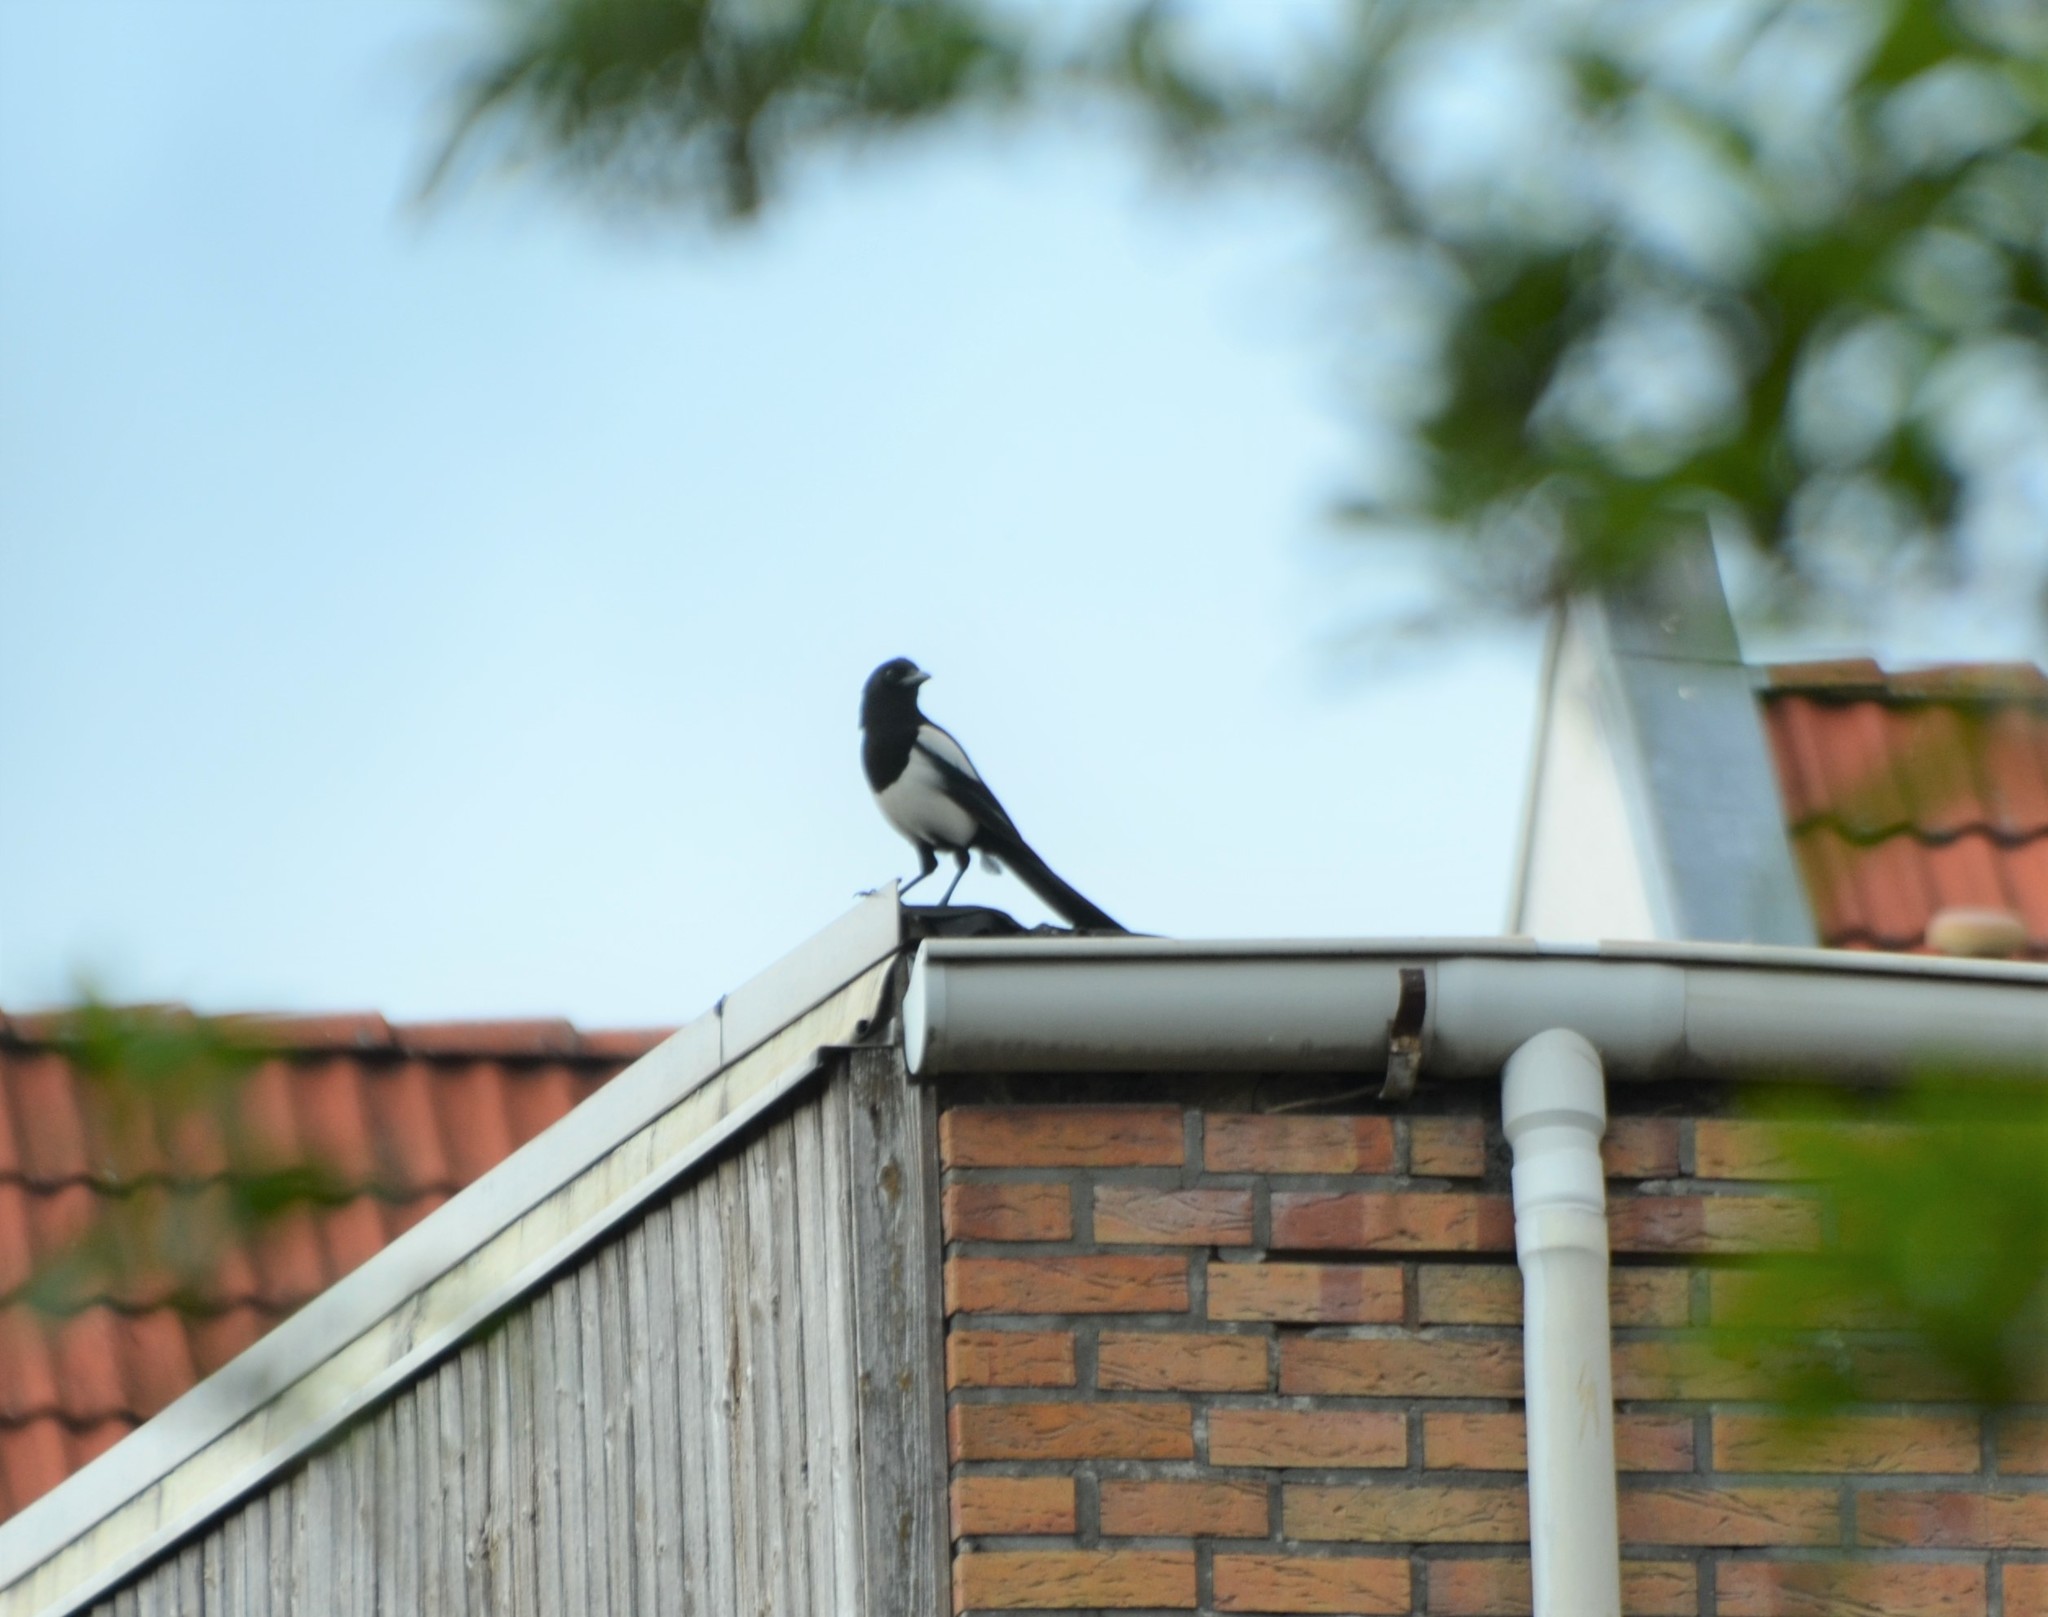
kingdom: Animalia
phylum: Chordata
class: Aves
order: Passeriformes
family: Corvidae
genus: Pica
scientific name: Pica pica
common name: Eurasian magpie
